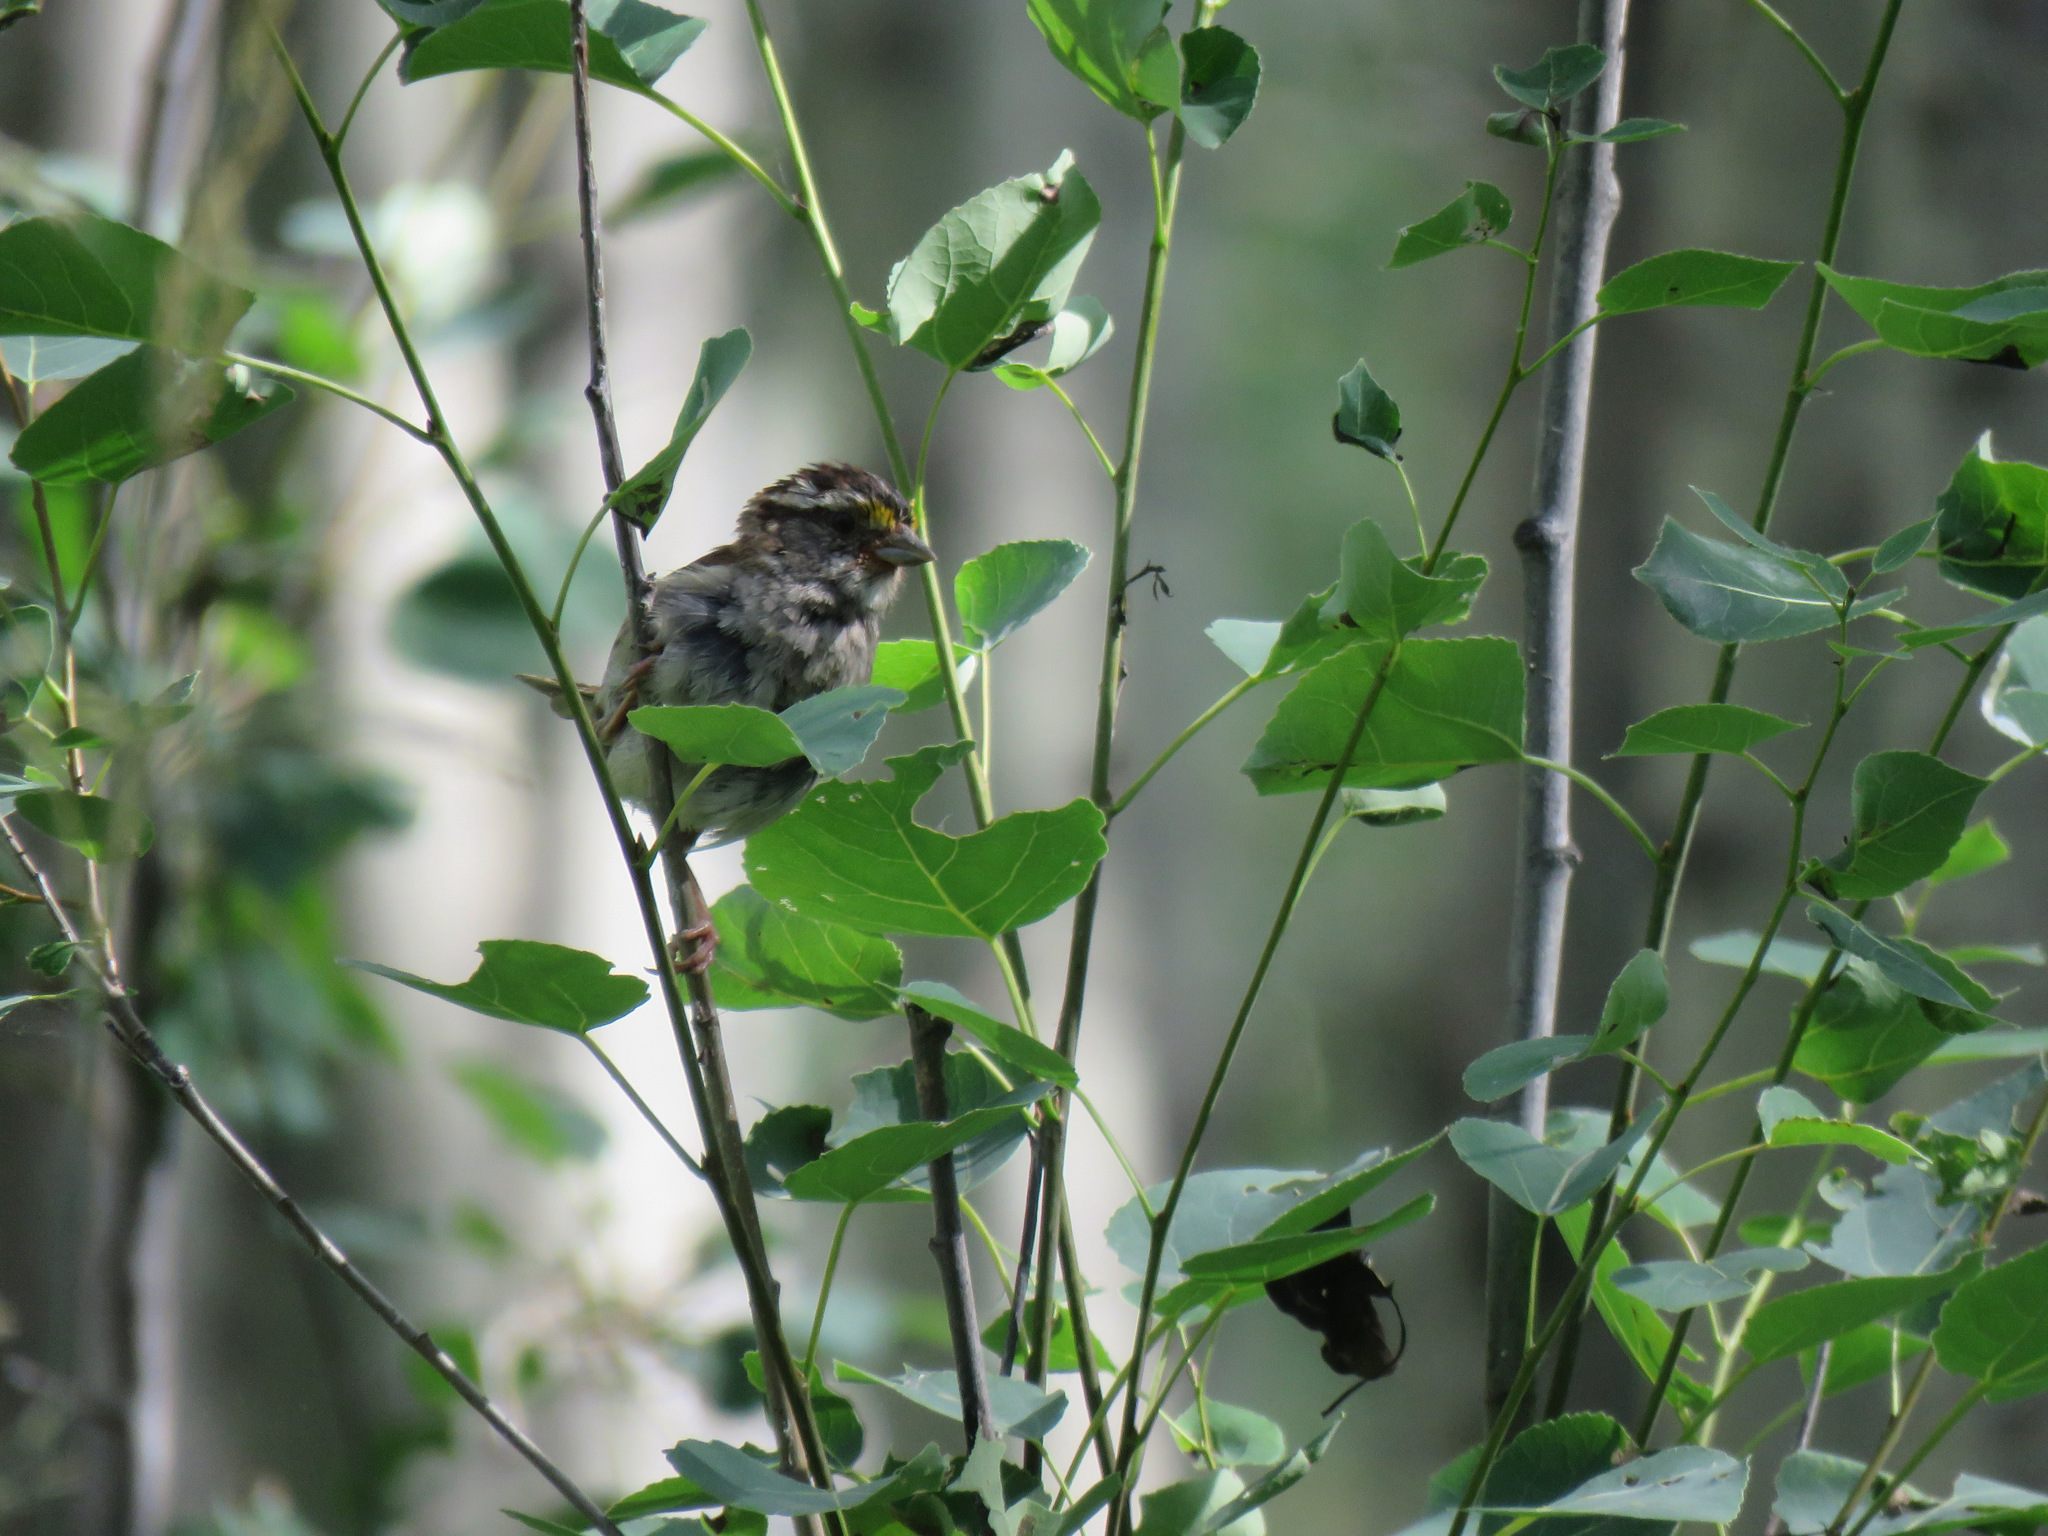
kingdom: Animalia
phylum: Chordata
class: Aves
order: Passeriformes
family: Passerellidae
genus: Zonotrichia
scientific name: Zonotrichia albicollis
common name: White-throated sparrow
